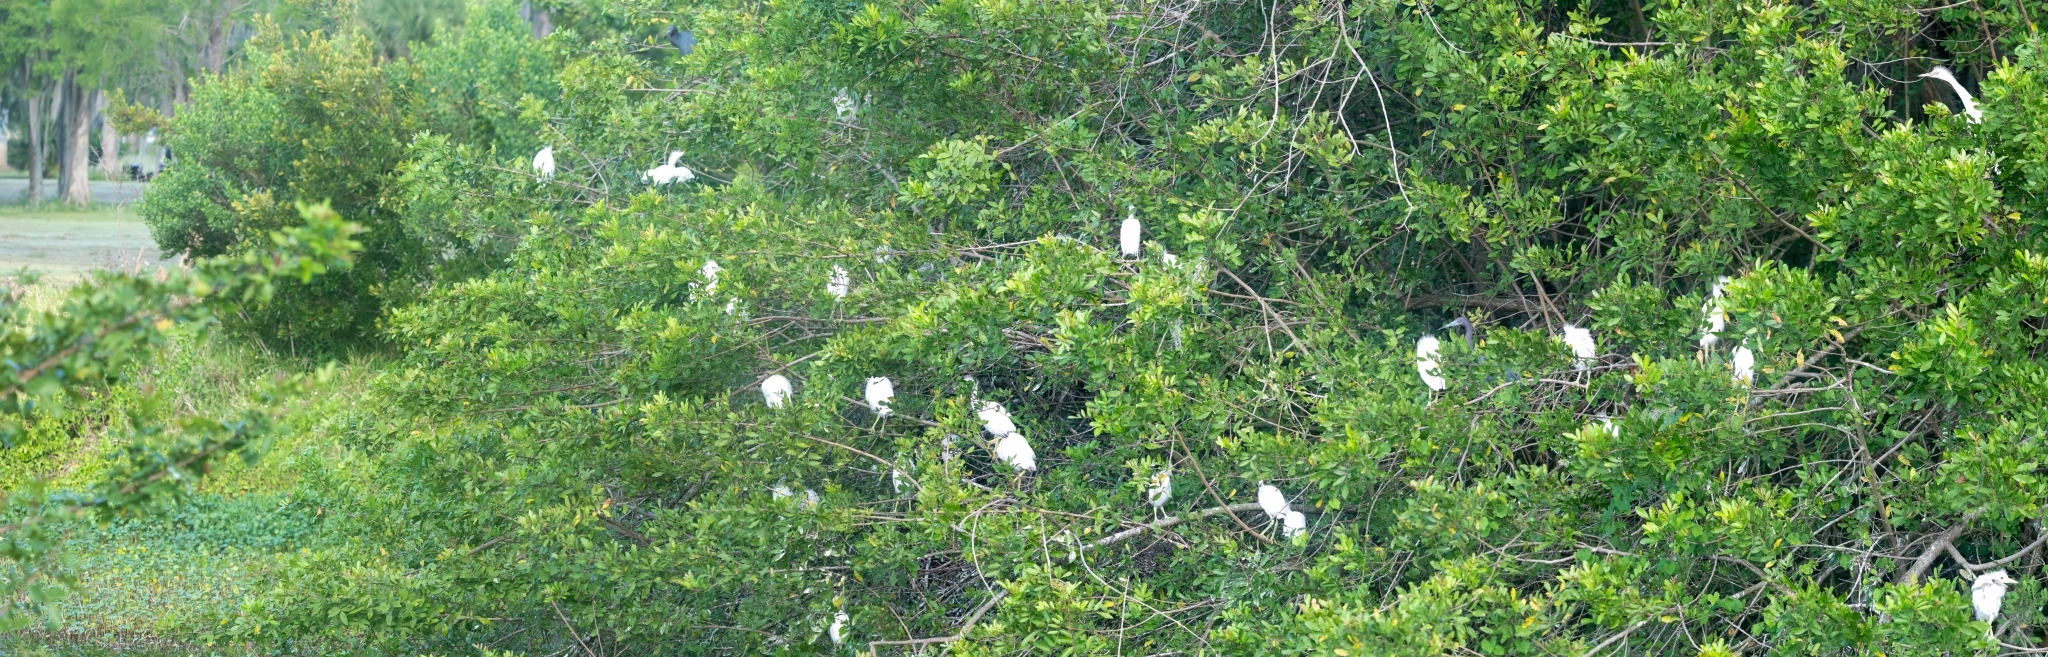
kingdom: Animalia
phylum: Chordata
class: Aves
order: Pelecaniformes
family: Ardeidae
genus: Egretta
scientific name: Egretta caerulea
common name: Little blue heron
